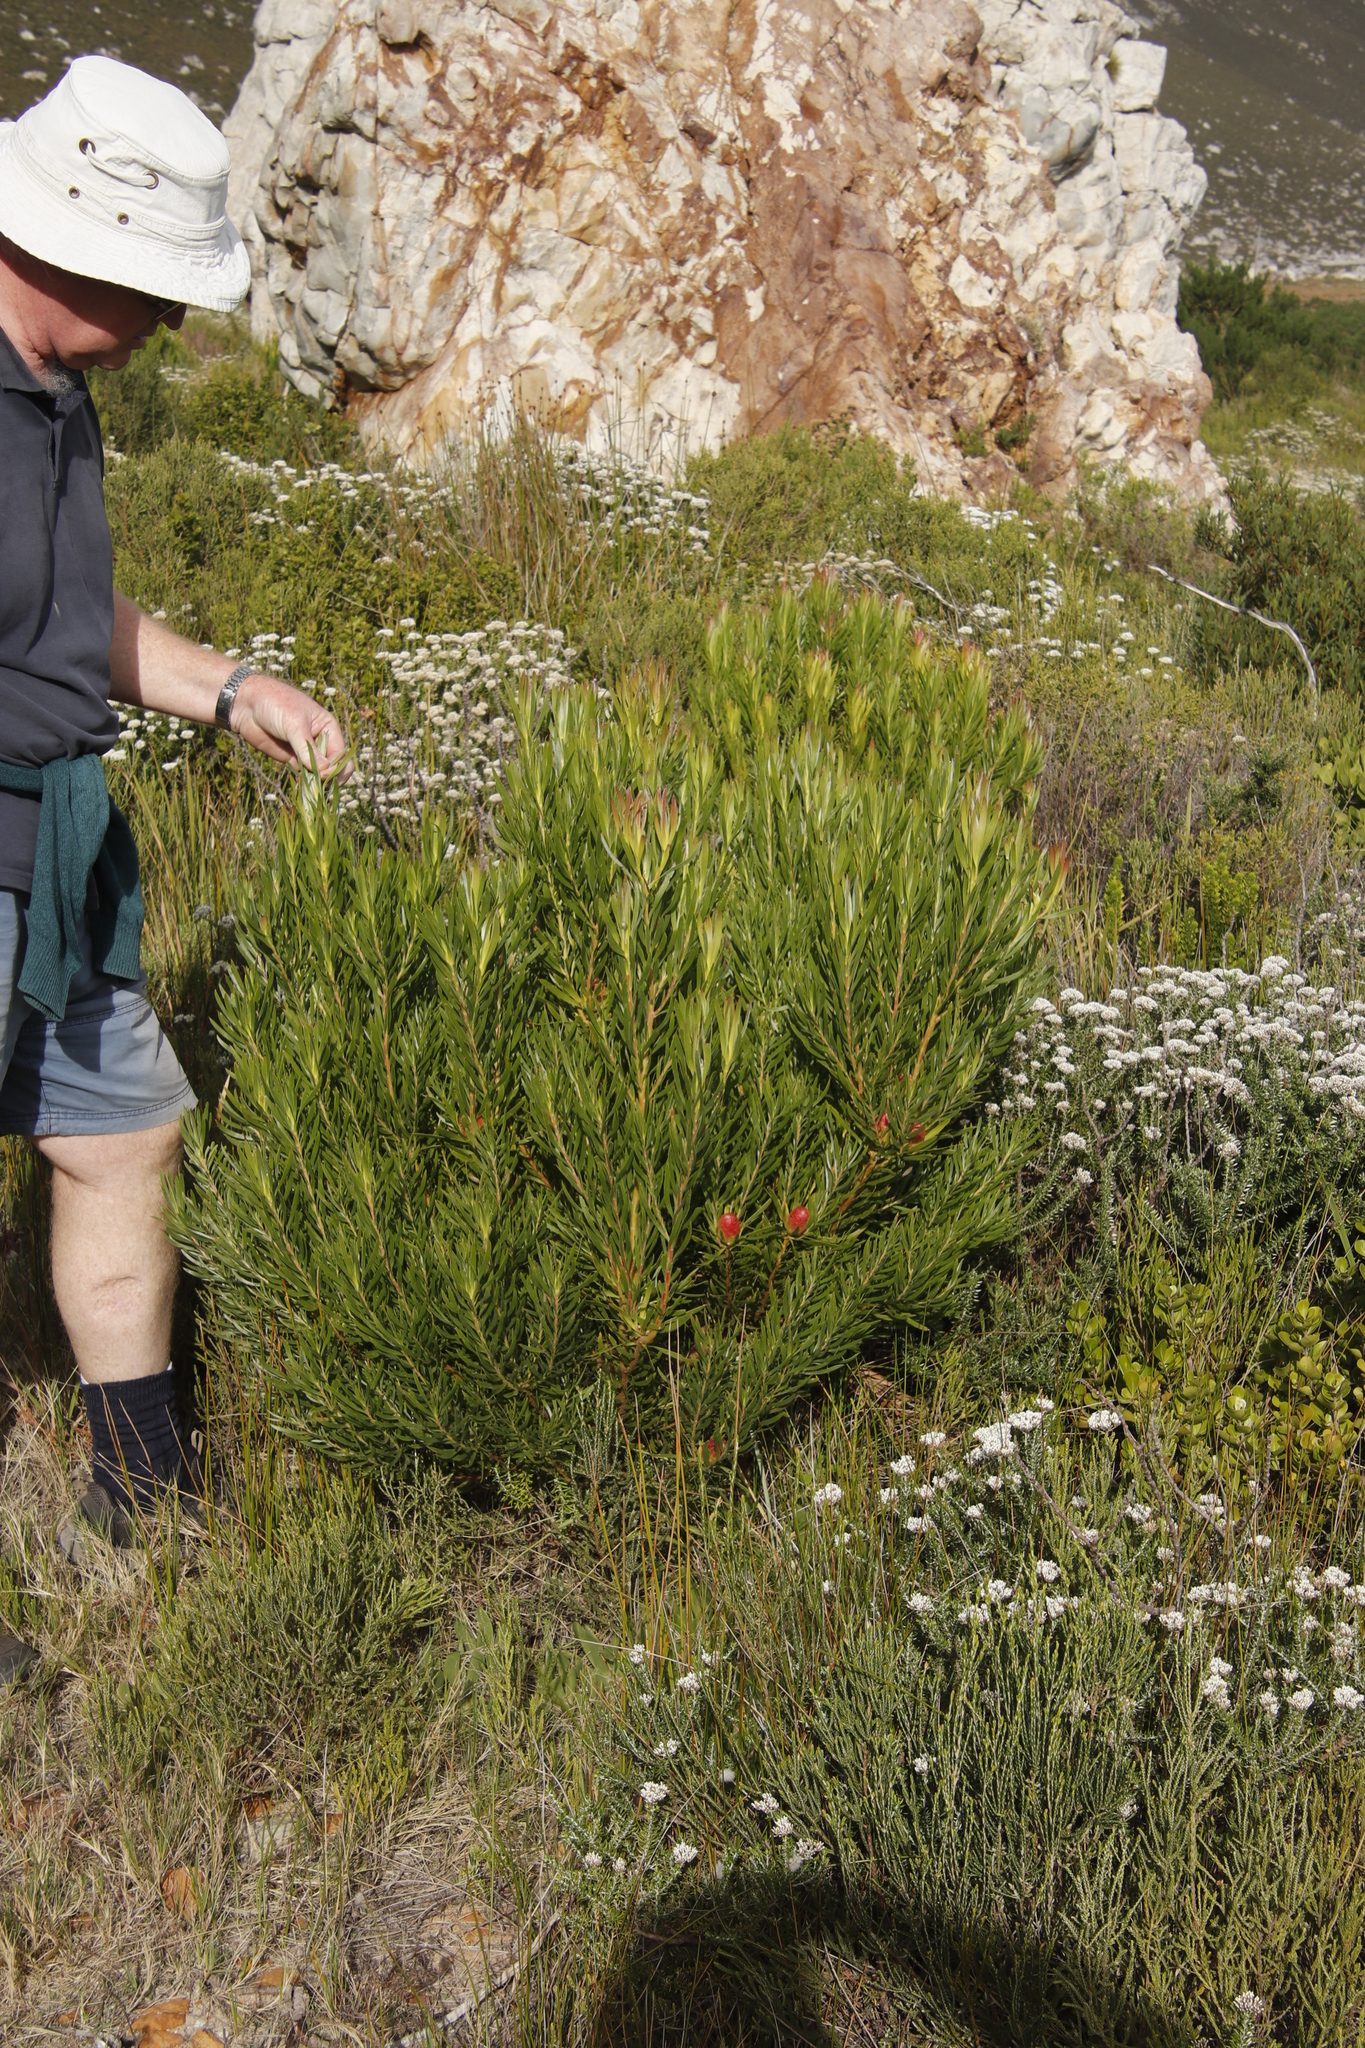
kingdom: Plantae
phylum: Tracheophyta
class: Magnoliopsida
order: Proteales
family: Proteaceae
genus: Leucadendron
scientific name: Leucadendron
